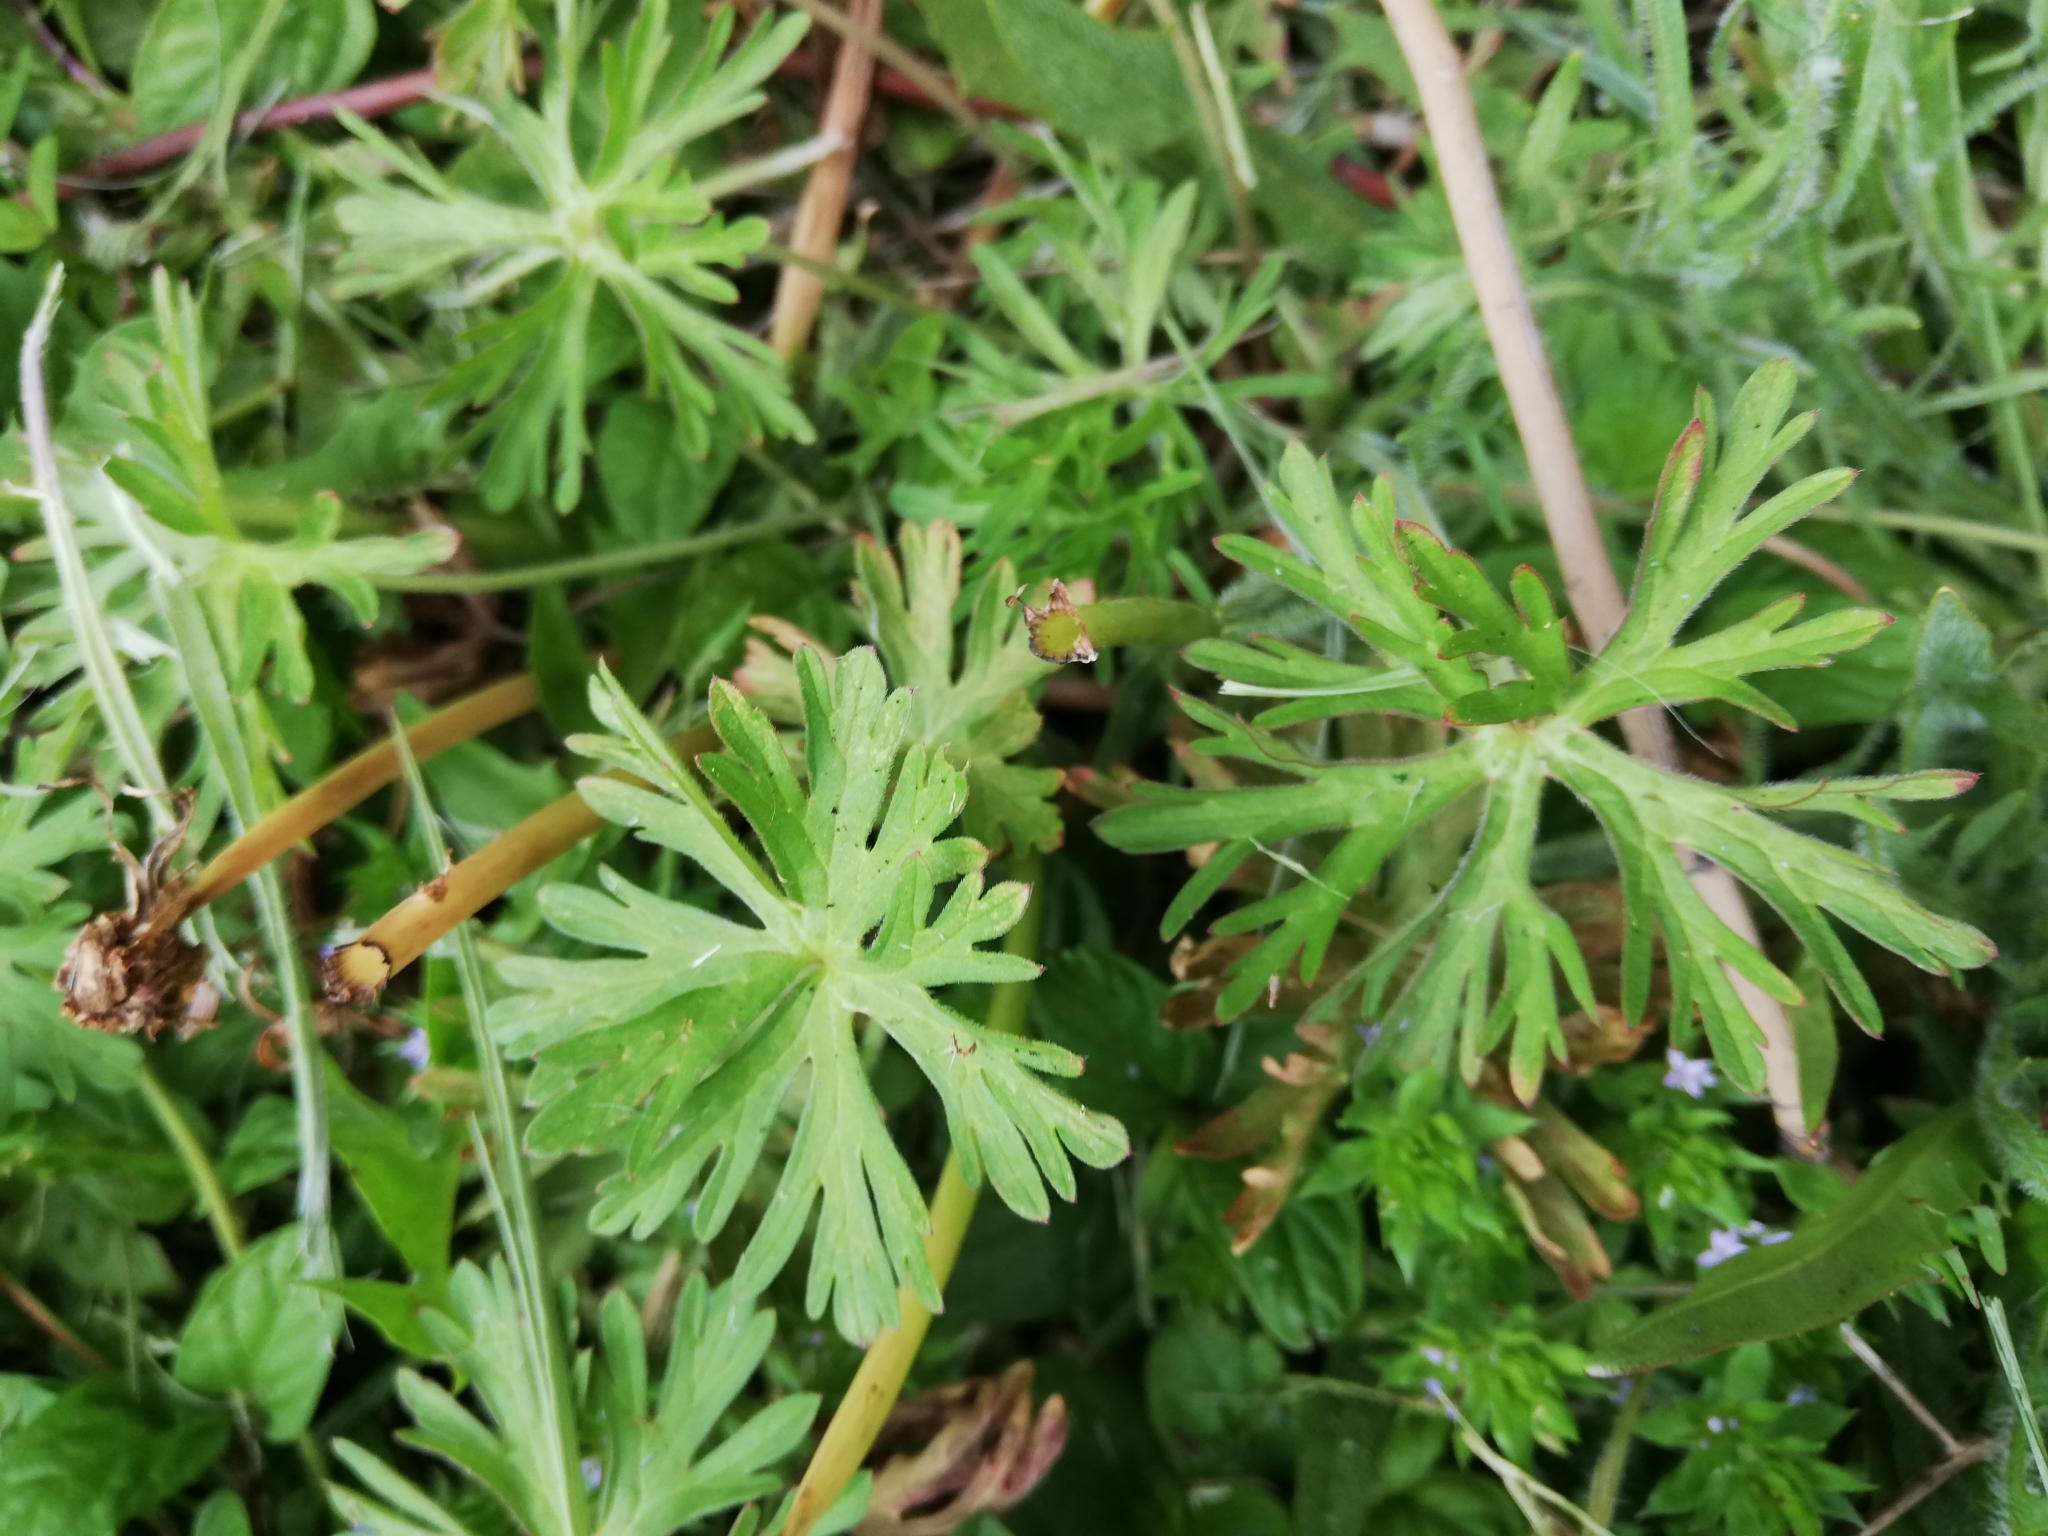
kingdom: Plantae
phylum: Tracheophyta
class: Magnoliopsida
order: Geraniales
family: Geraniaceae
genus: Geranium
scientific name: Geranium dissectum
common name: Cut-leaved crane's-bill
